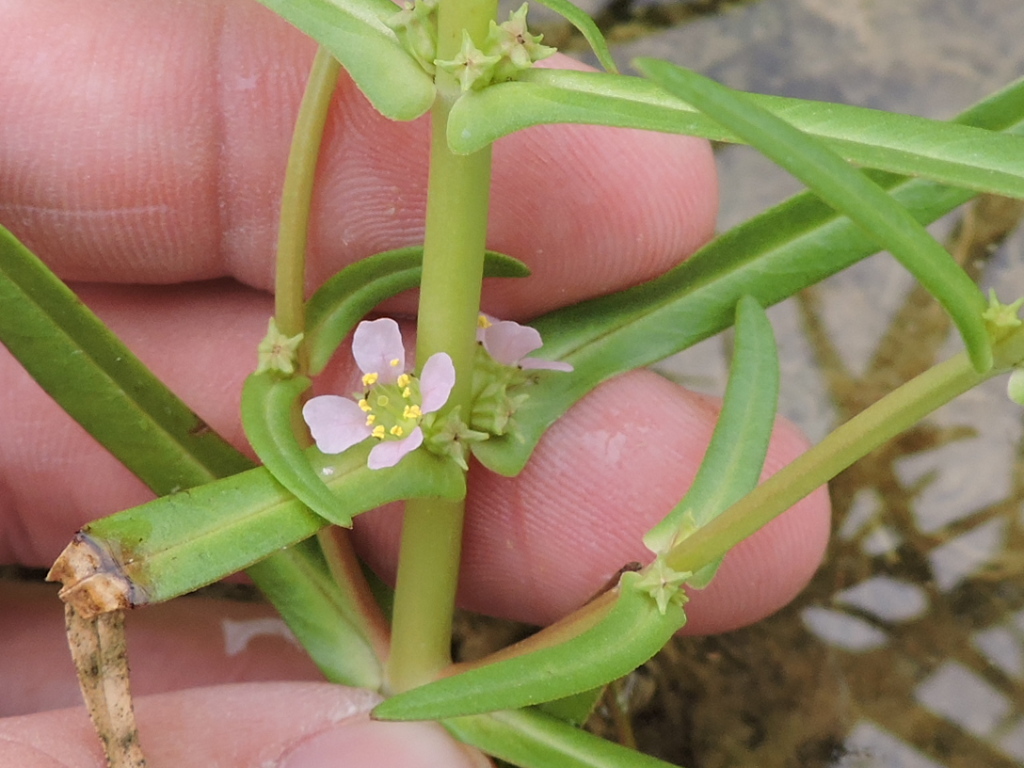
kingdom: Plantae
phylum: Tracheophyta
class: Magnoliopsida
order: Myrtales
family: Lythraceae
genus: Ammannia
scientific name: Ammannia robusta
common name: Grand ammannia
